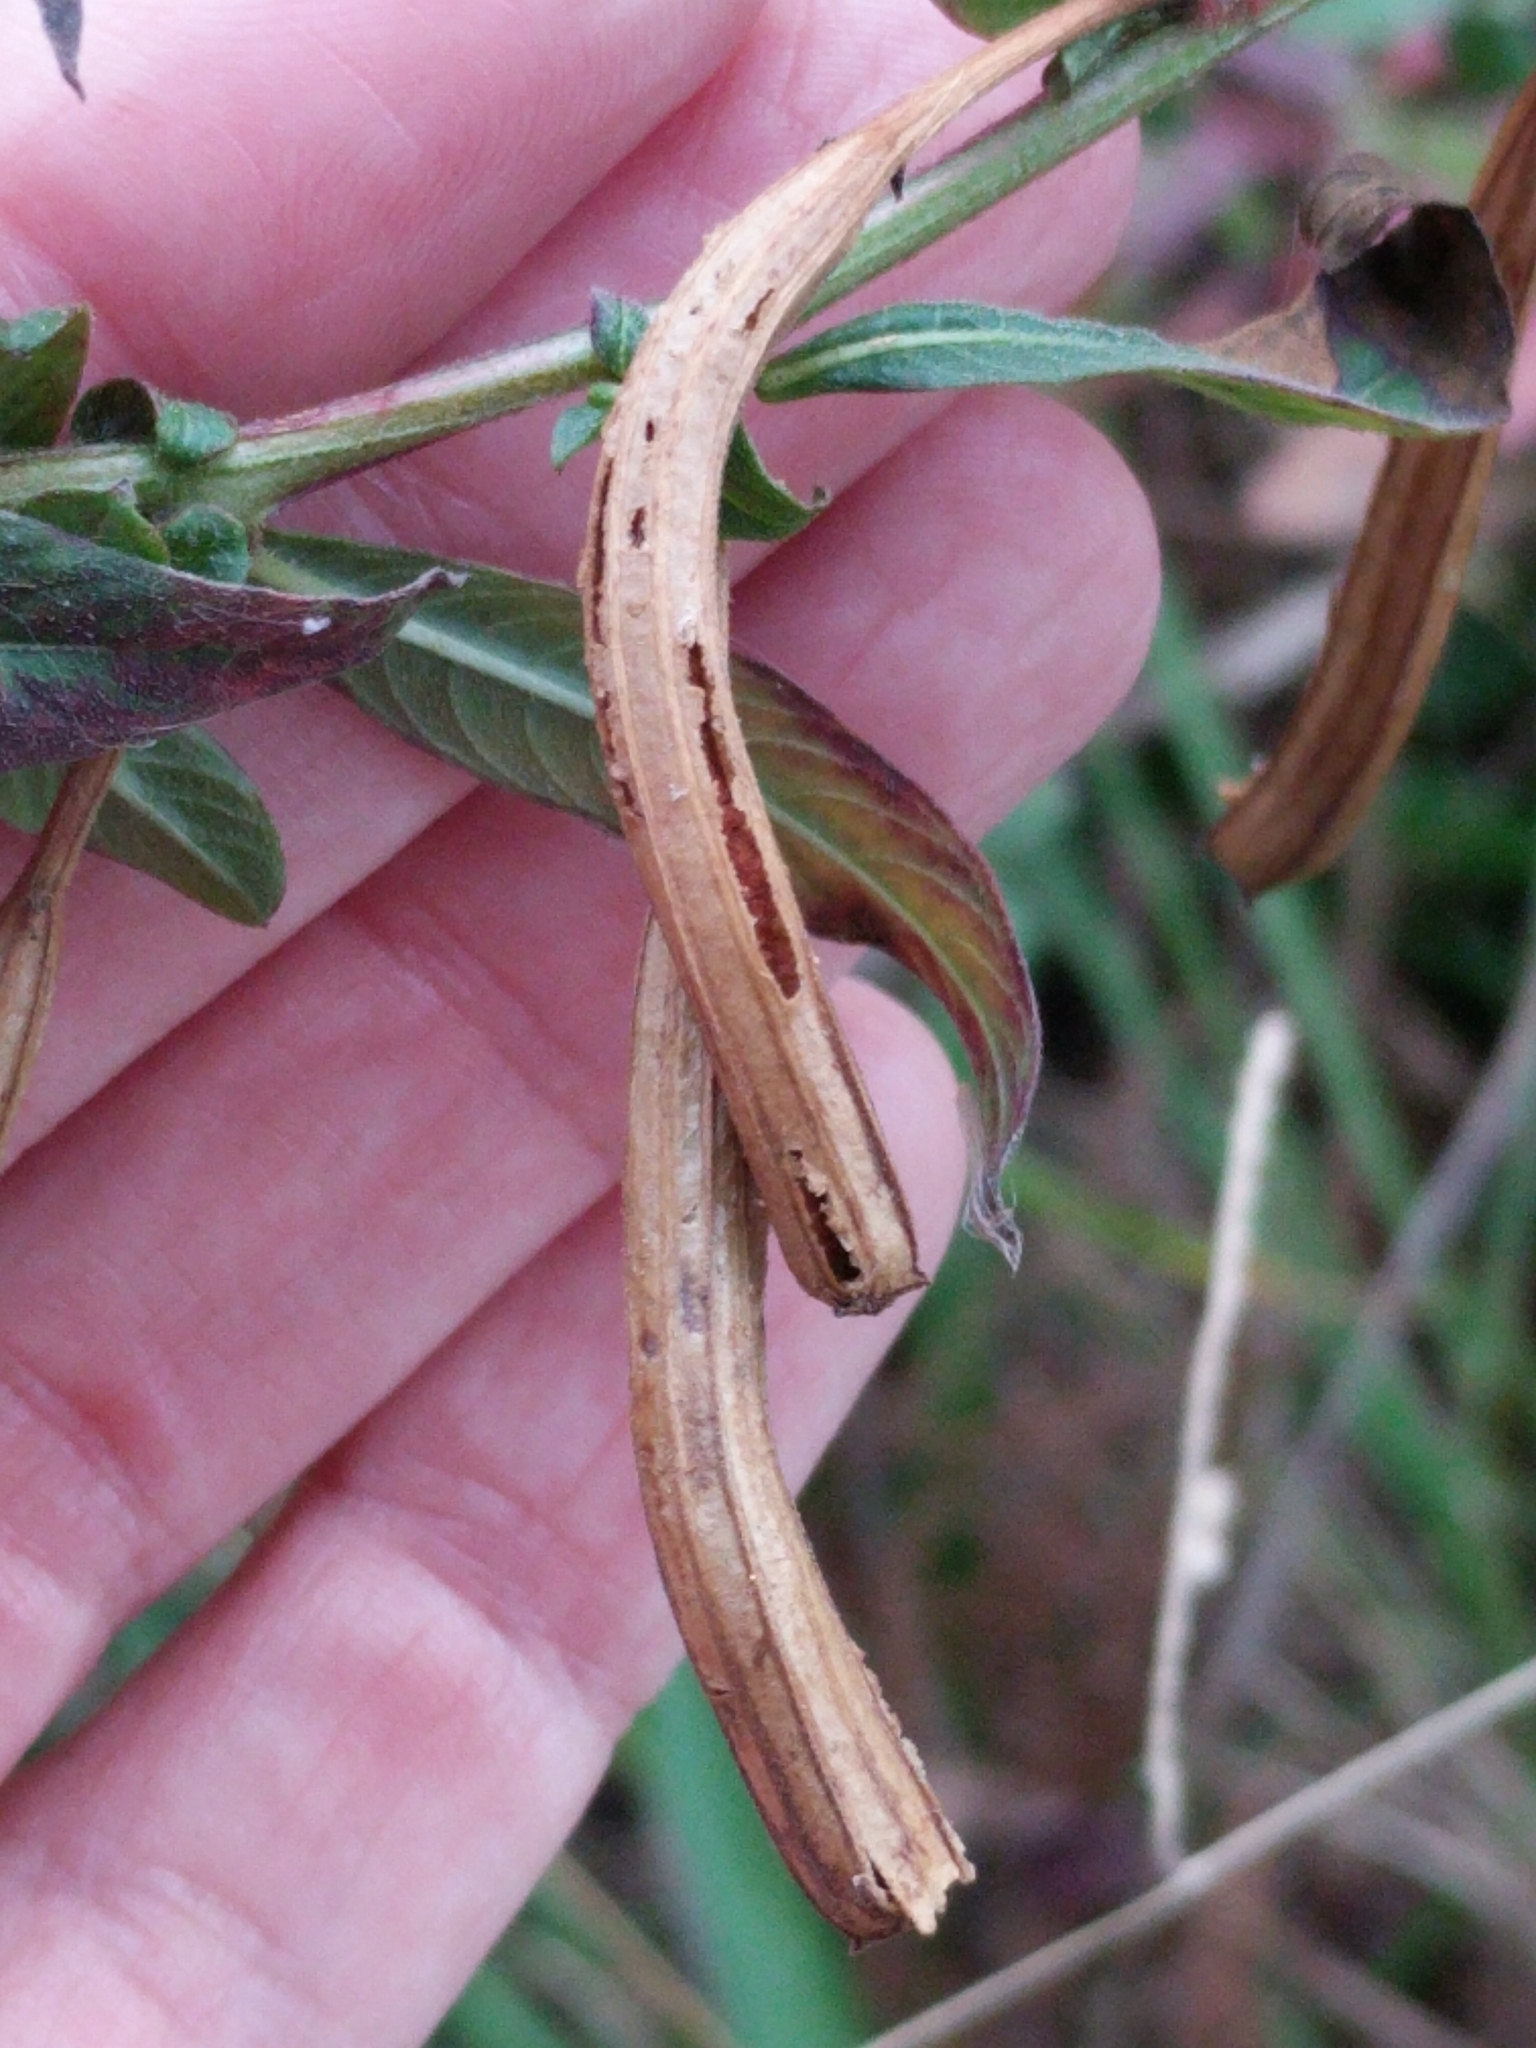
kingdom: Plantae
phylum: Tracheophyta
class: Magnoliopsida
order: Myrtales
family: Onagraceae
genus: Ludwigia
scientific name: Ludwigia octovalvis
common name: Water-primrose
